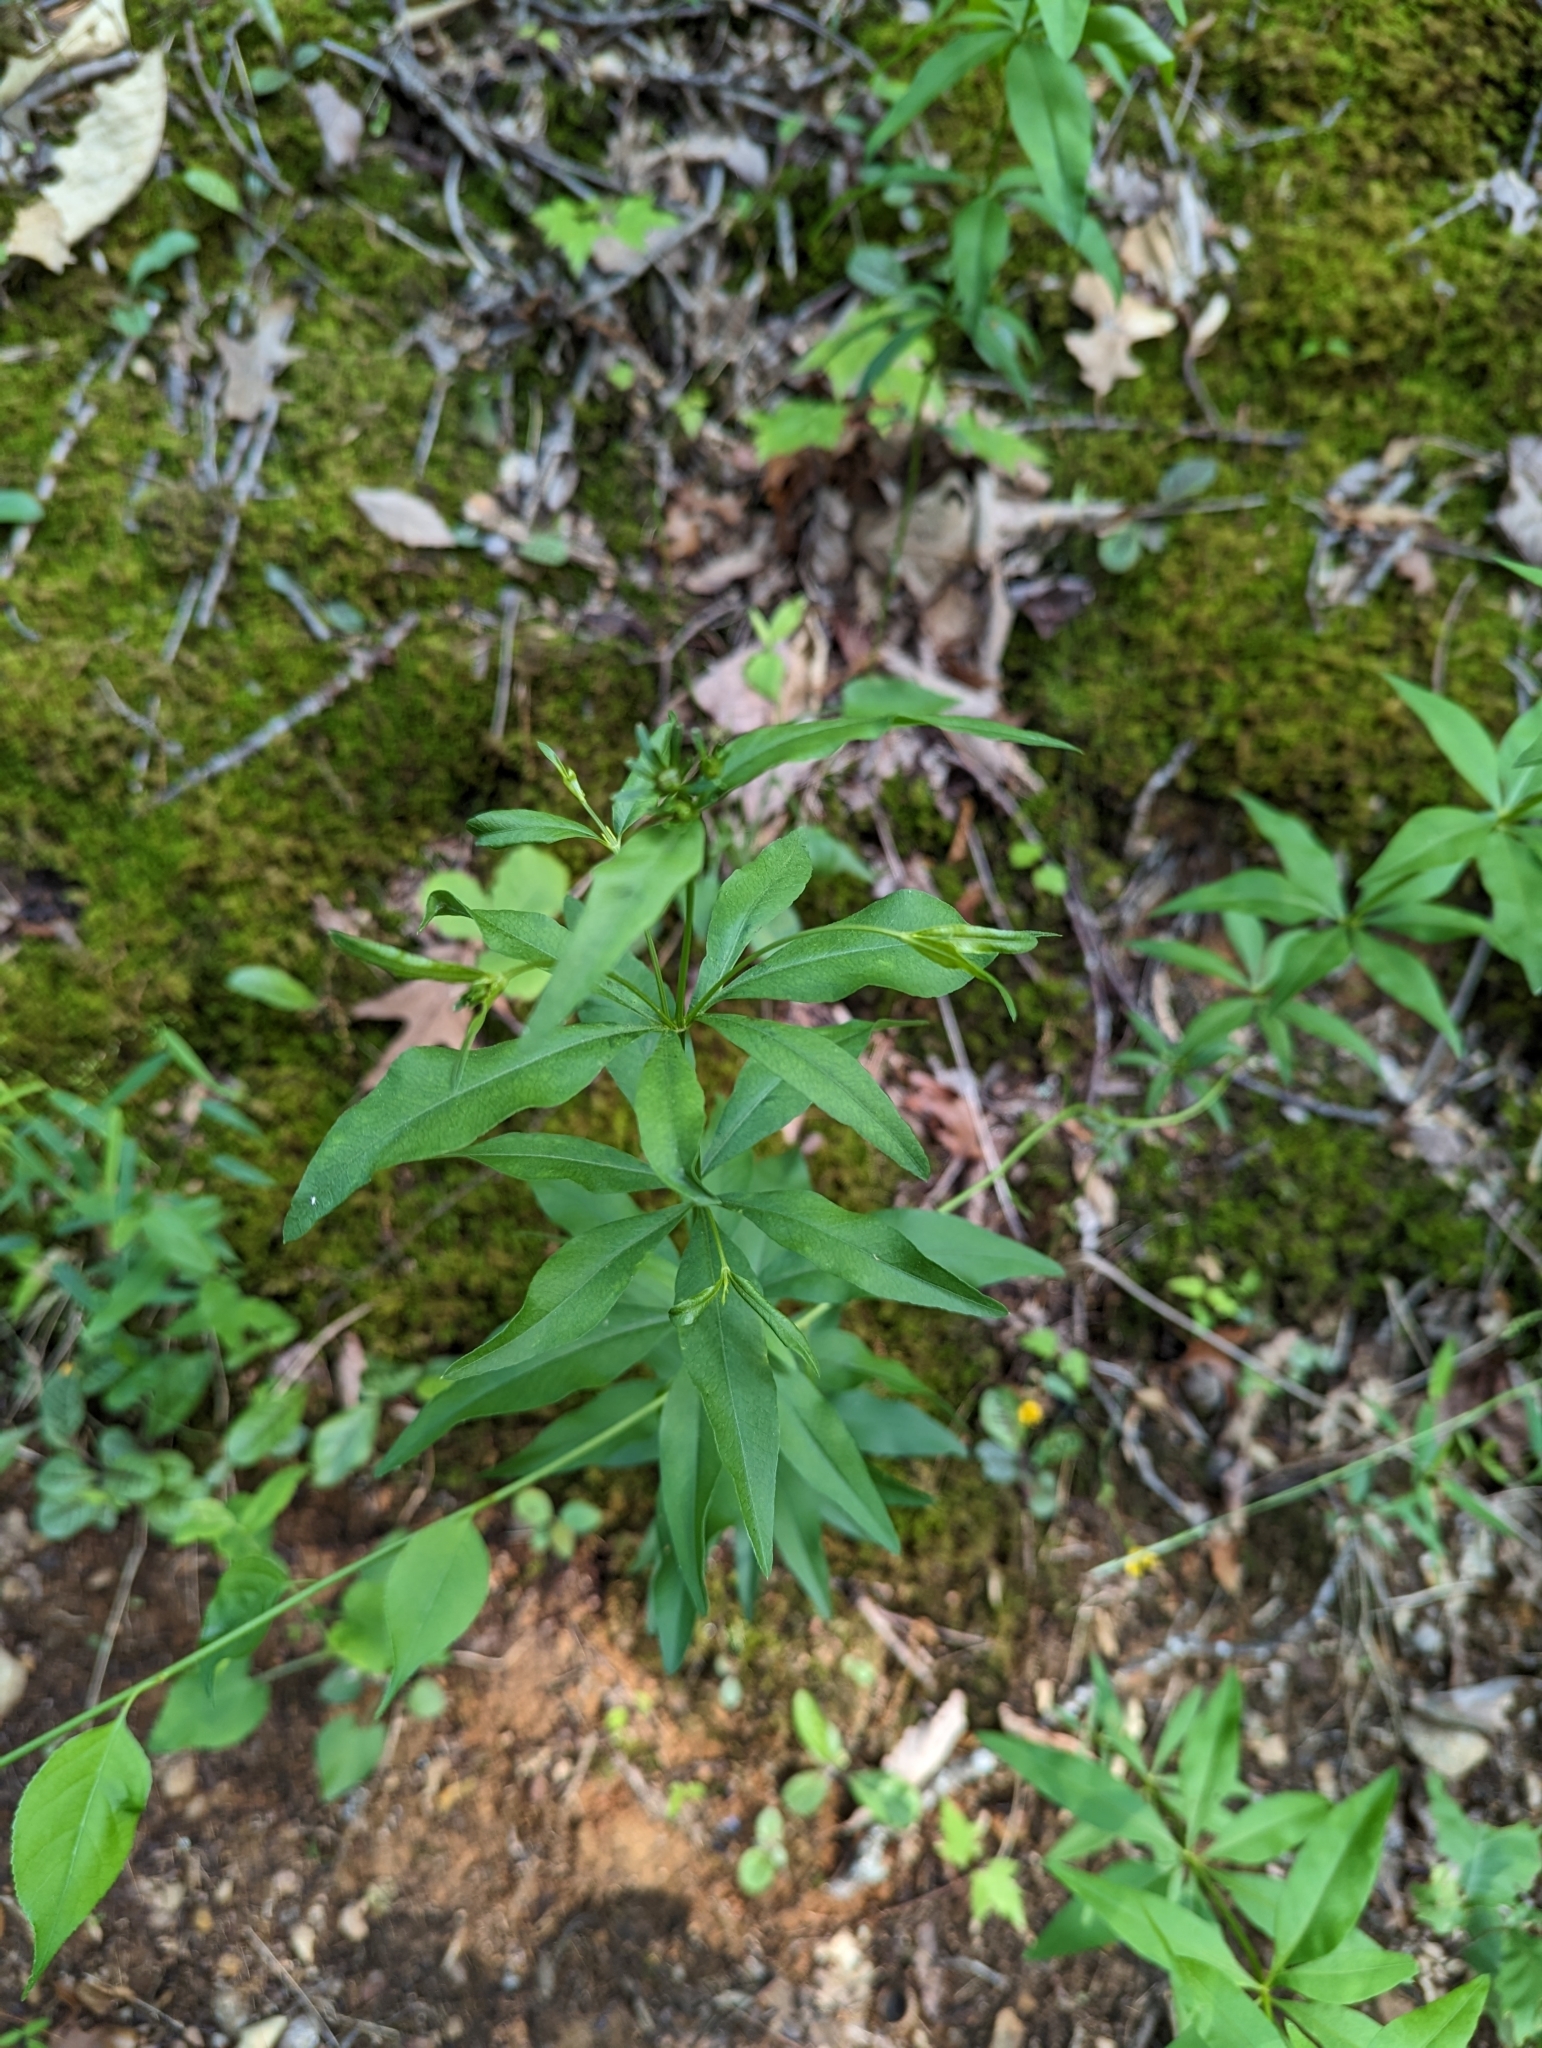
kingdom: Plantae
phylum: Tracheophyta
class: Magnoliopsida
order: Asterales
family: Asteraceae
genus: Coreopsis
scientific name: Coreopsis major
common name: Forest tickseed
